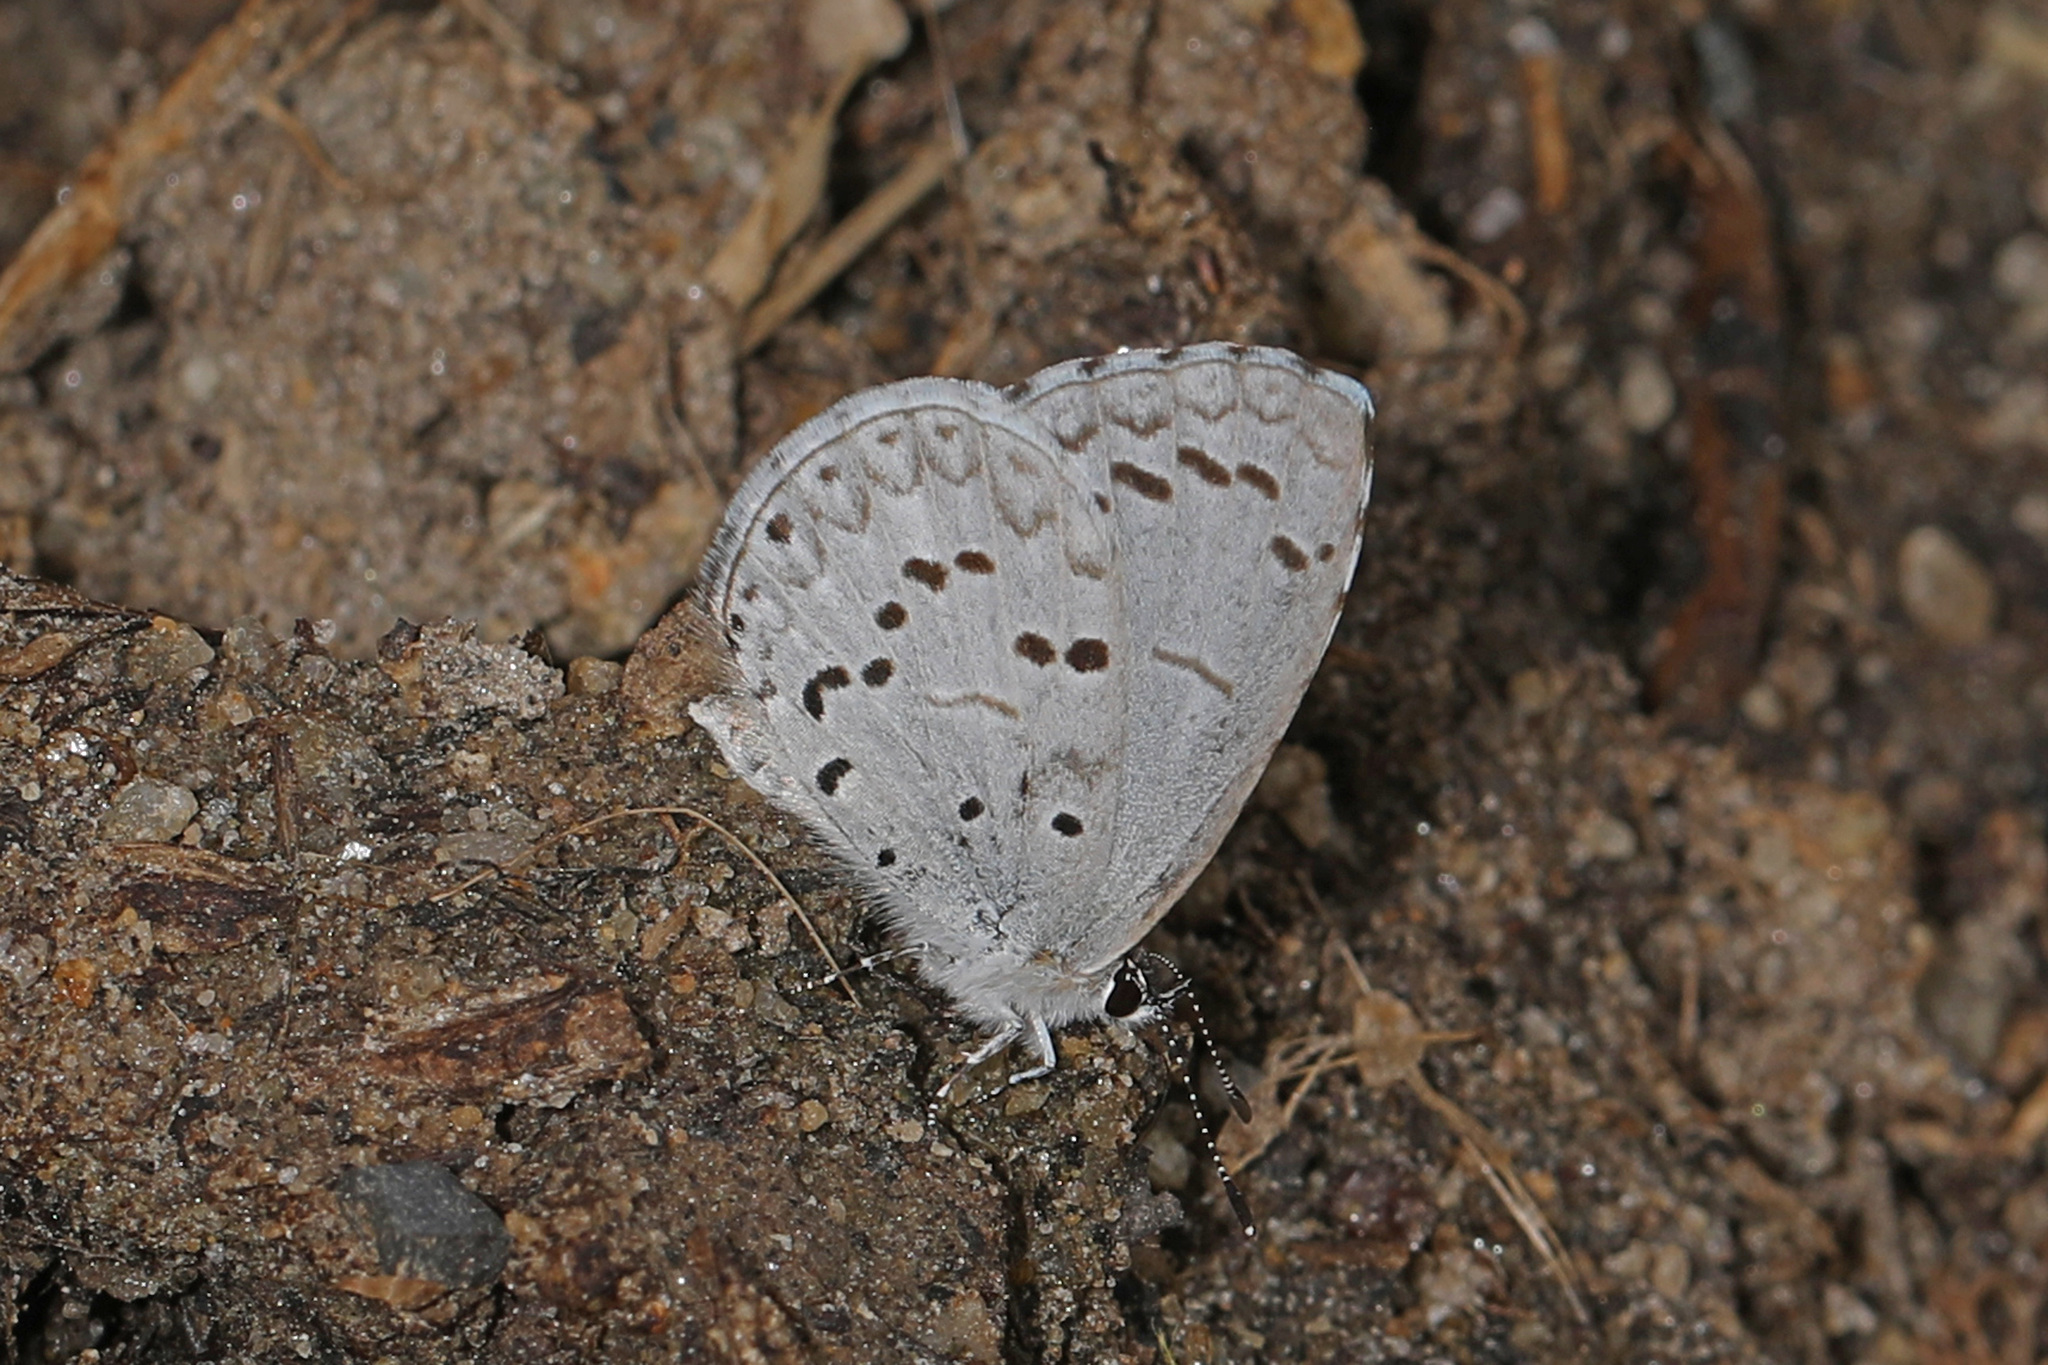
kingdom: Animalia
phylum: Arthropoda
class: Insecta
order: Lepidoptera
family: Lycaenidae
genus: Cyaniris
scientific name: Cyaniris neglecta
